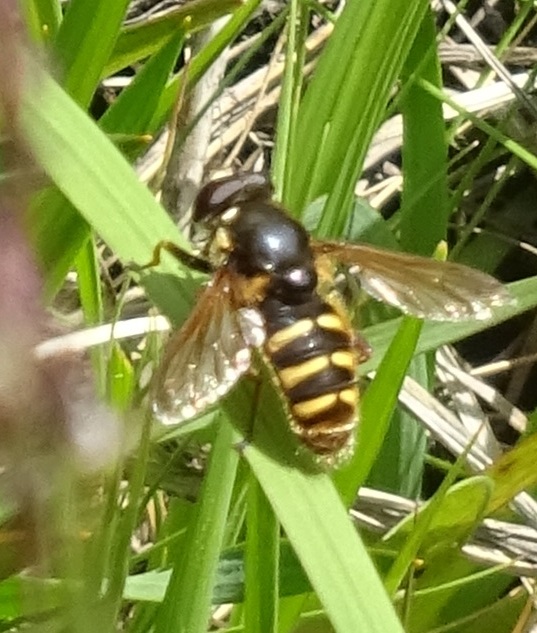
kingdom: Animalia
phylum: Arthropoda
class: Insecta
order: Diptera
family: Syrphidae
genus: Sericomyia
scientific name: Sericomyia silentis
